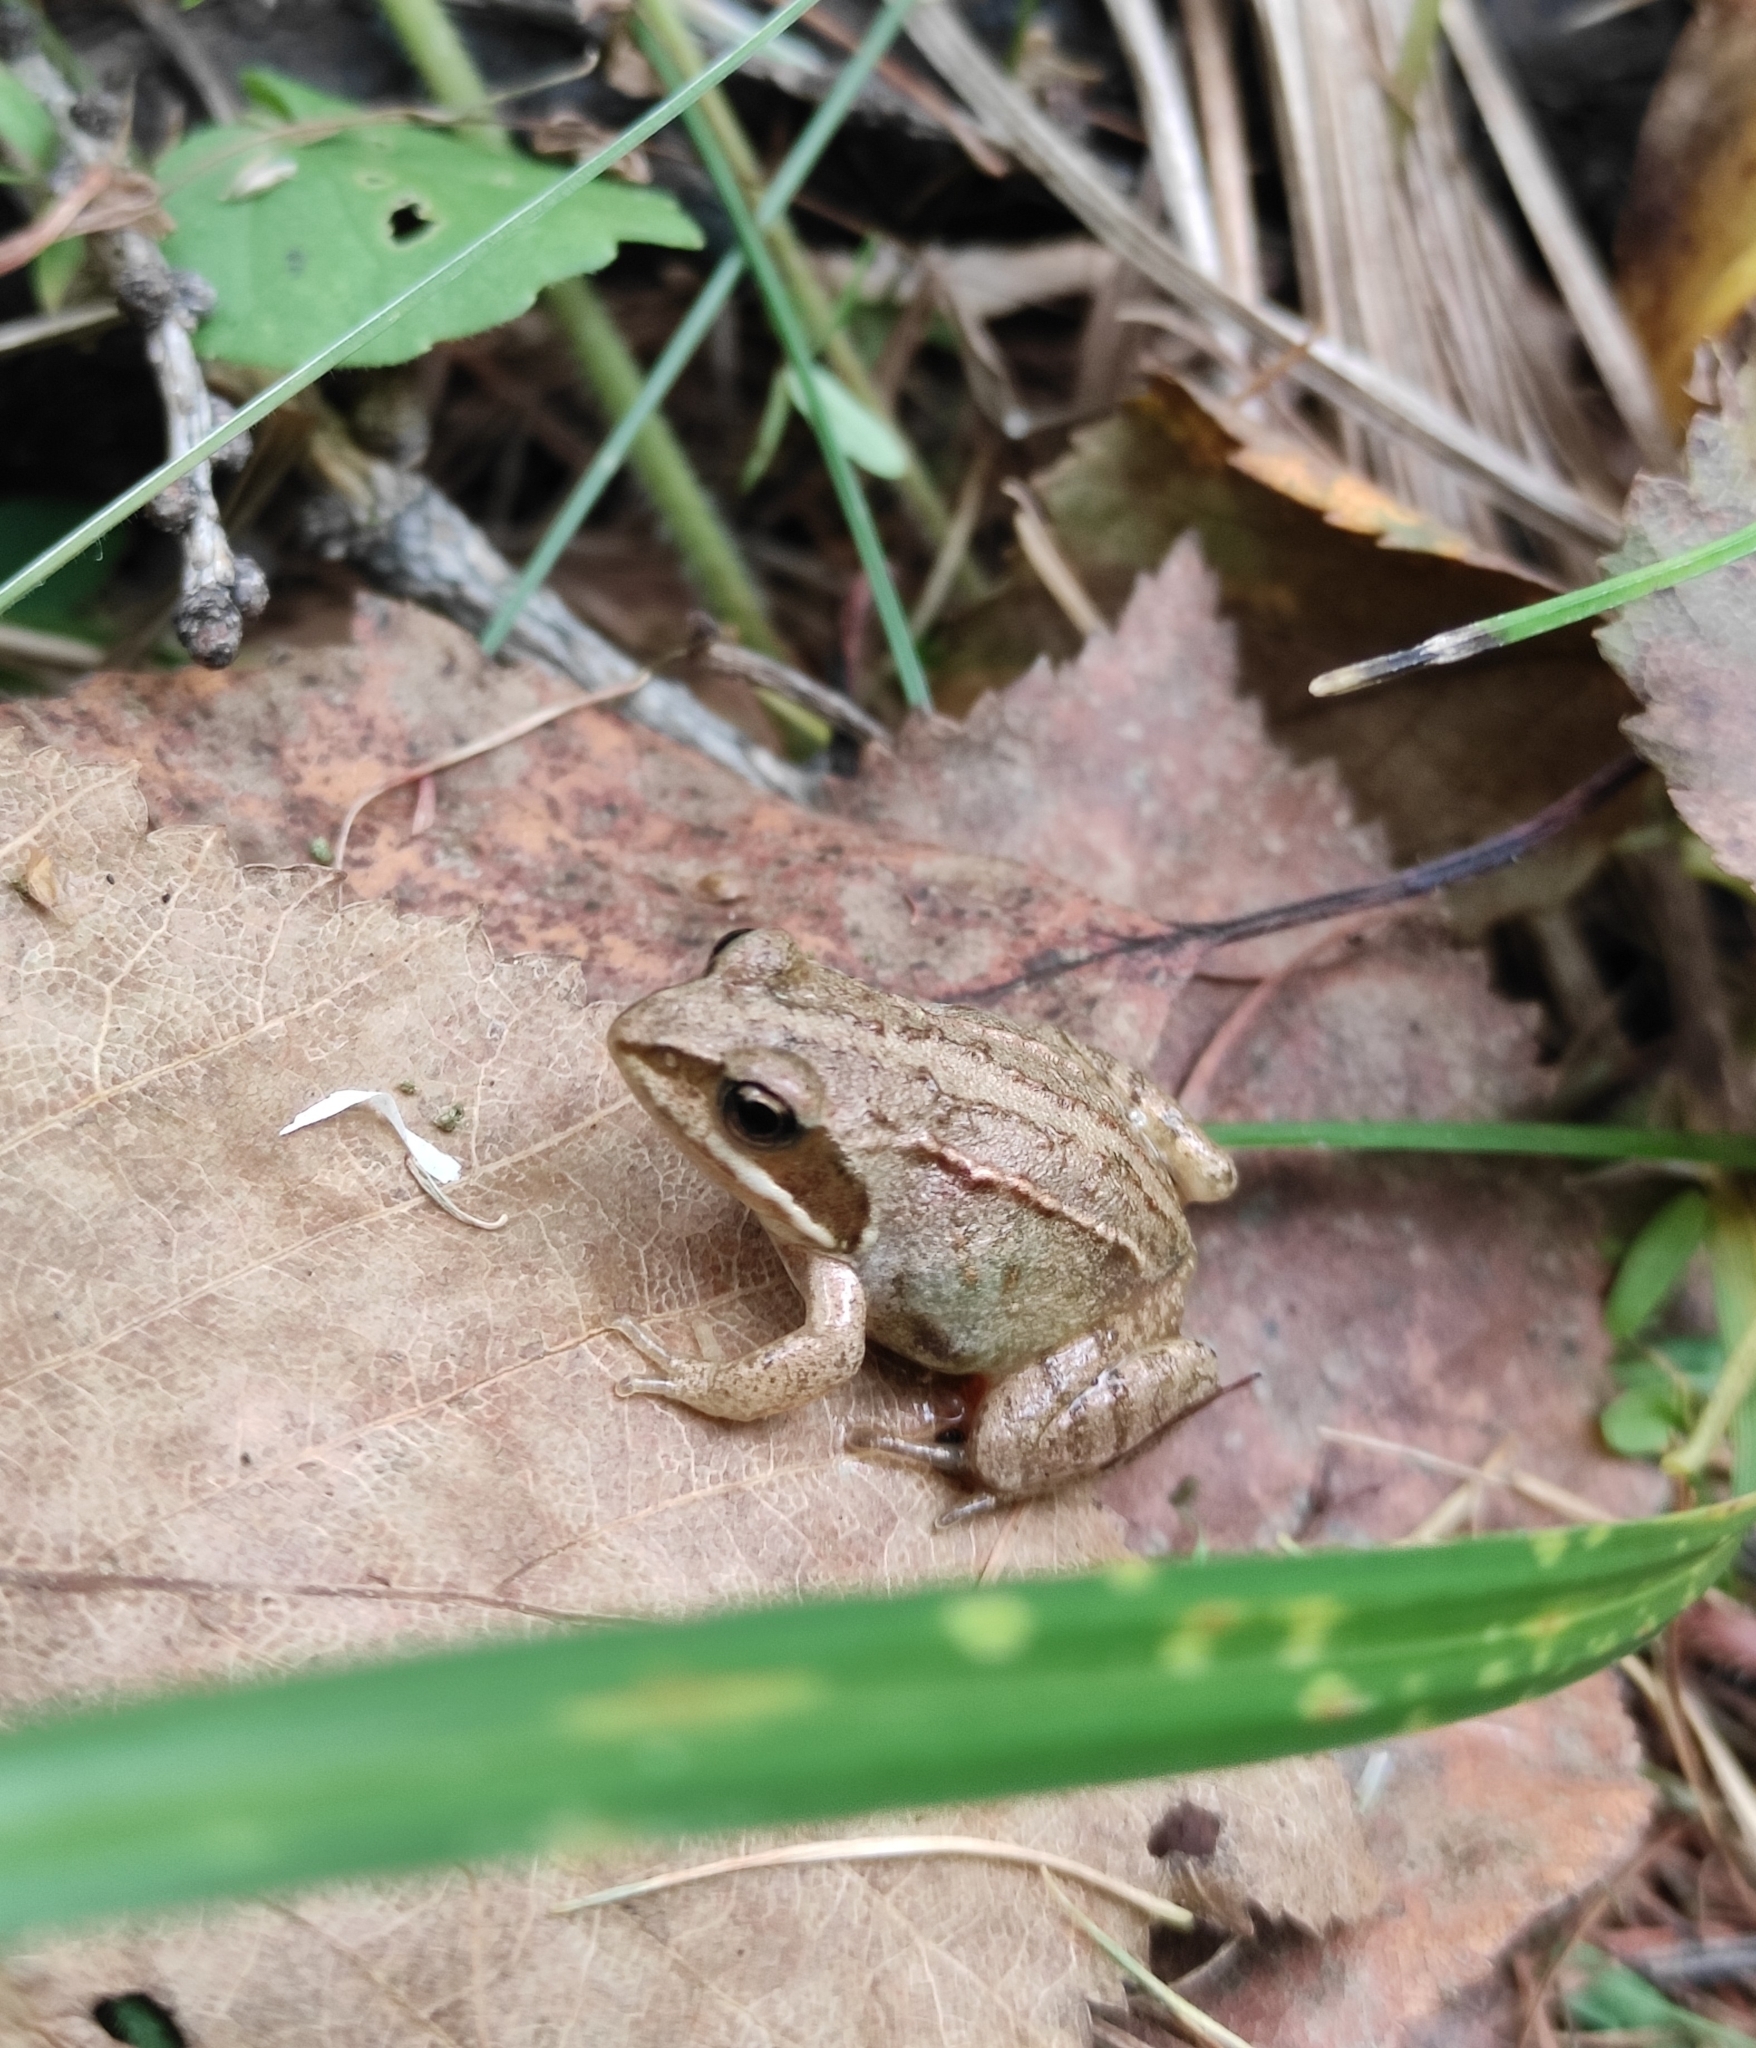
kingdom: Animalia
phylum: Chordata
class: Amphibia
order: Anura
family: Ranidae
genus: Rana
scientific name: Rana arvalis
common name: Moor frog
